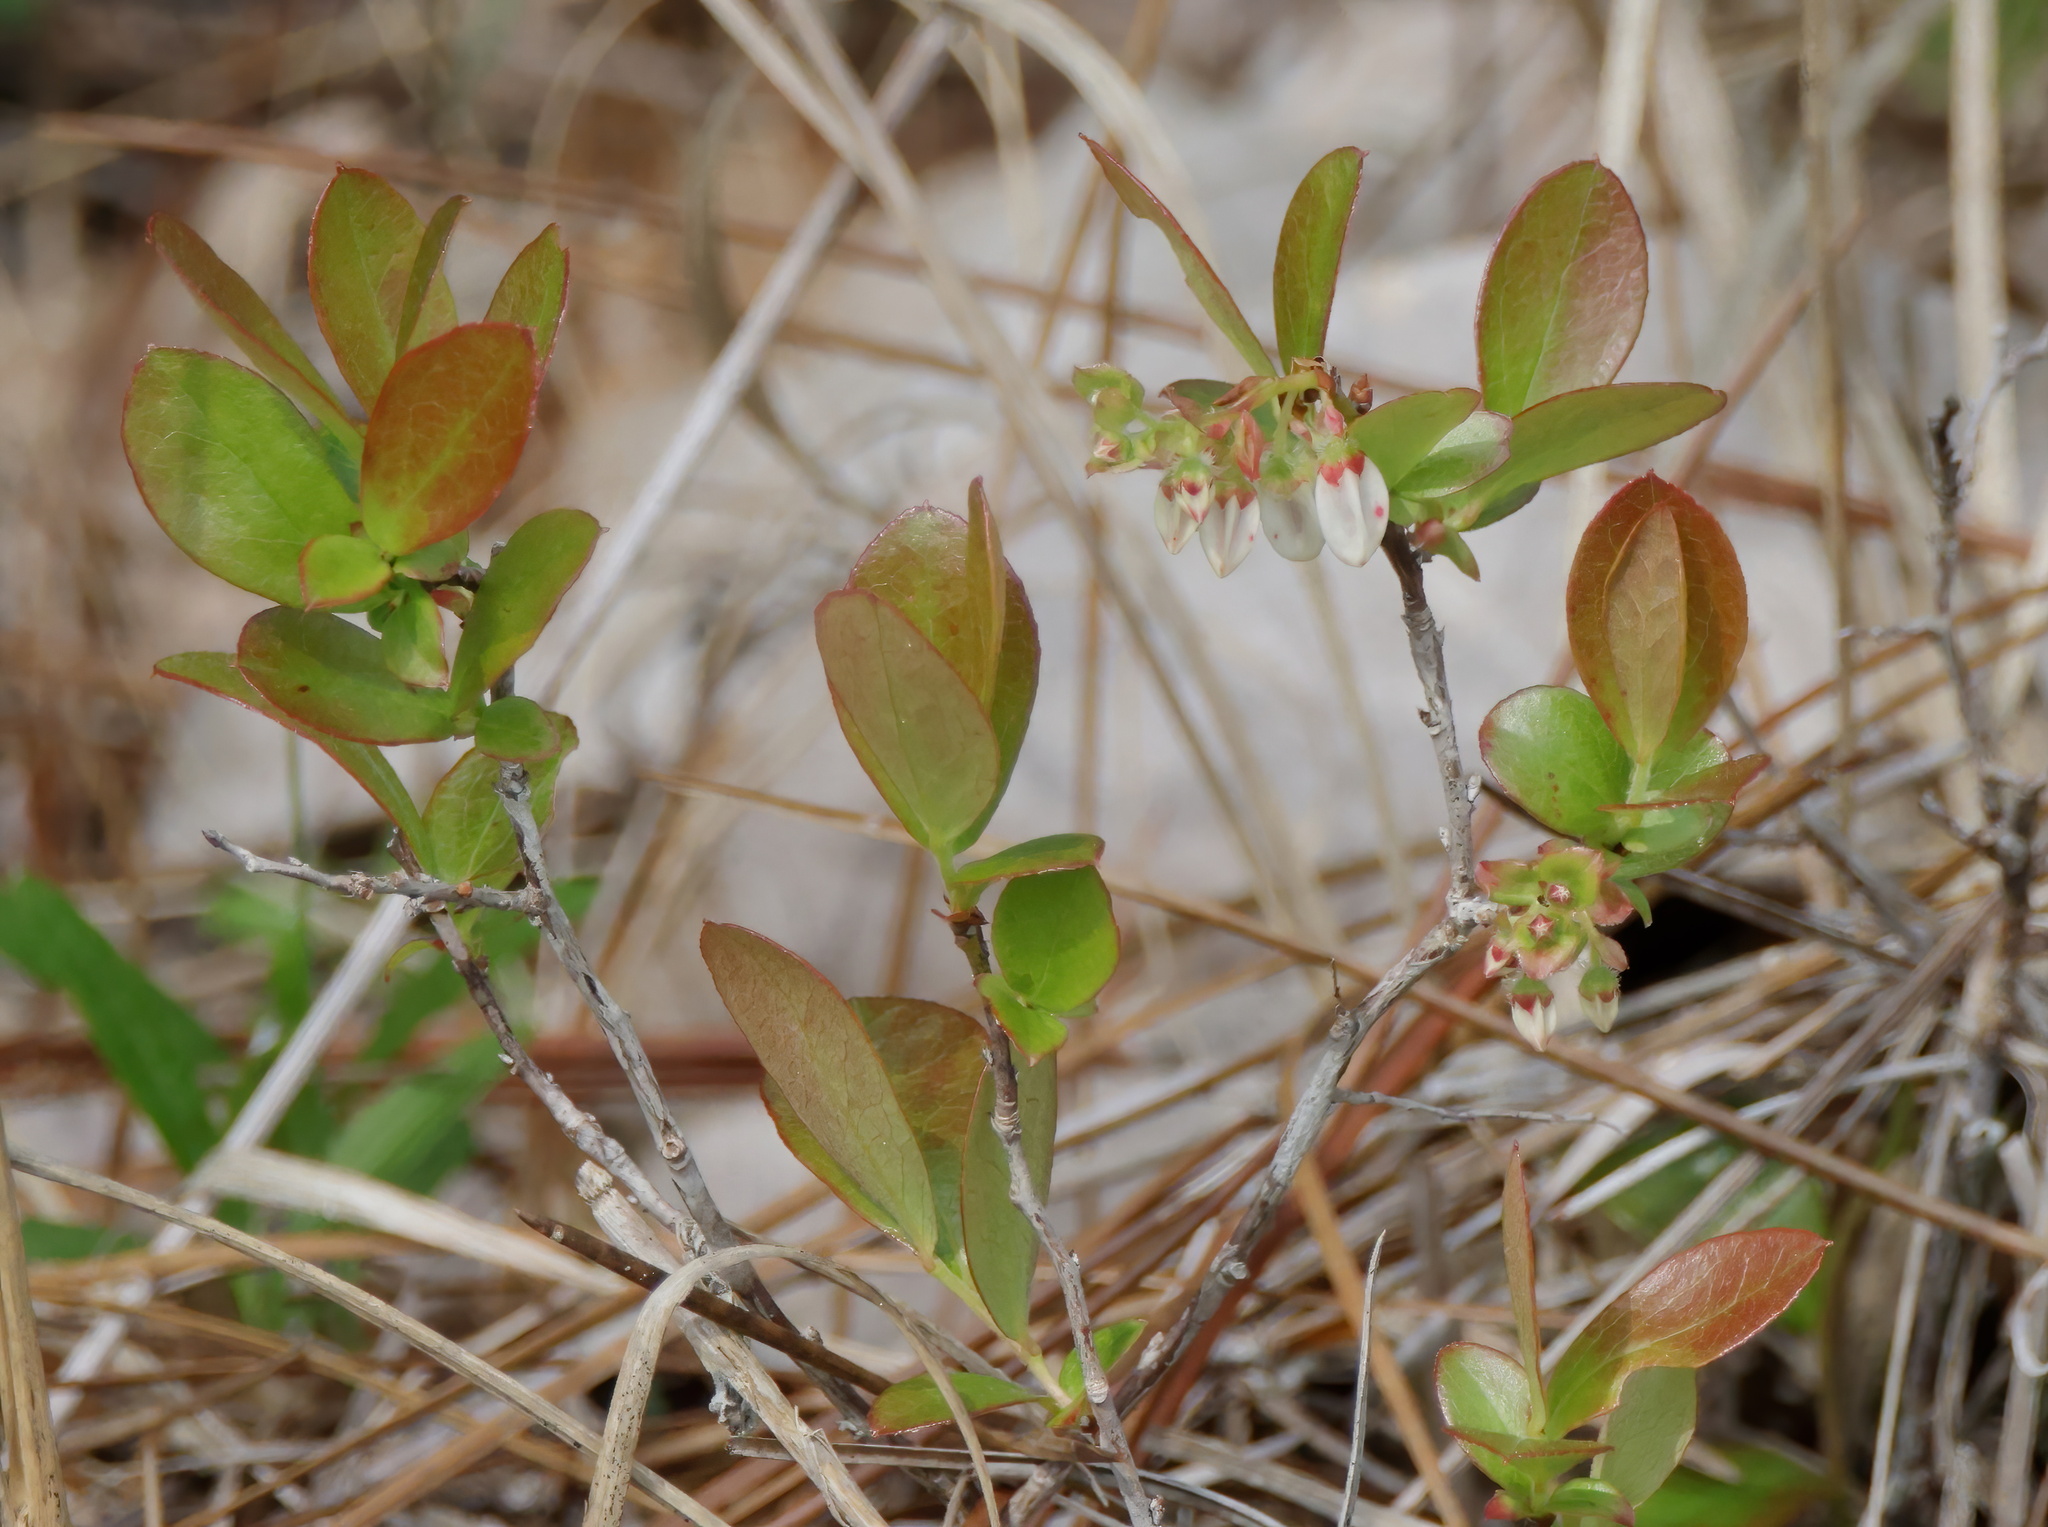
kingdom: Plantae
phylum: Tracheophyta
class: Magnoliopsida
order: Ericales
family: Ericaceae
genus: Gaylussacia
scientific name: Gaylussacia dumosa
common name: Dwarf huckleberry
